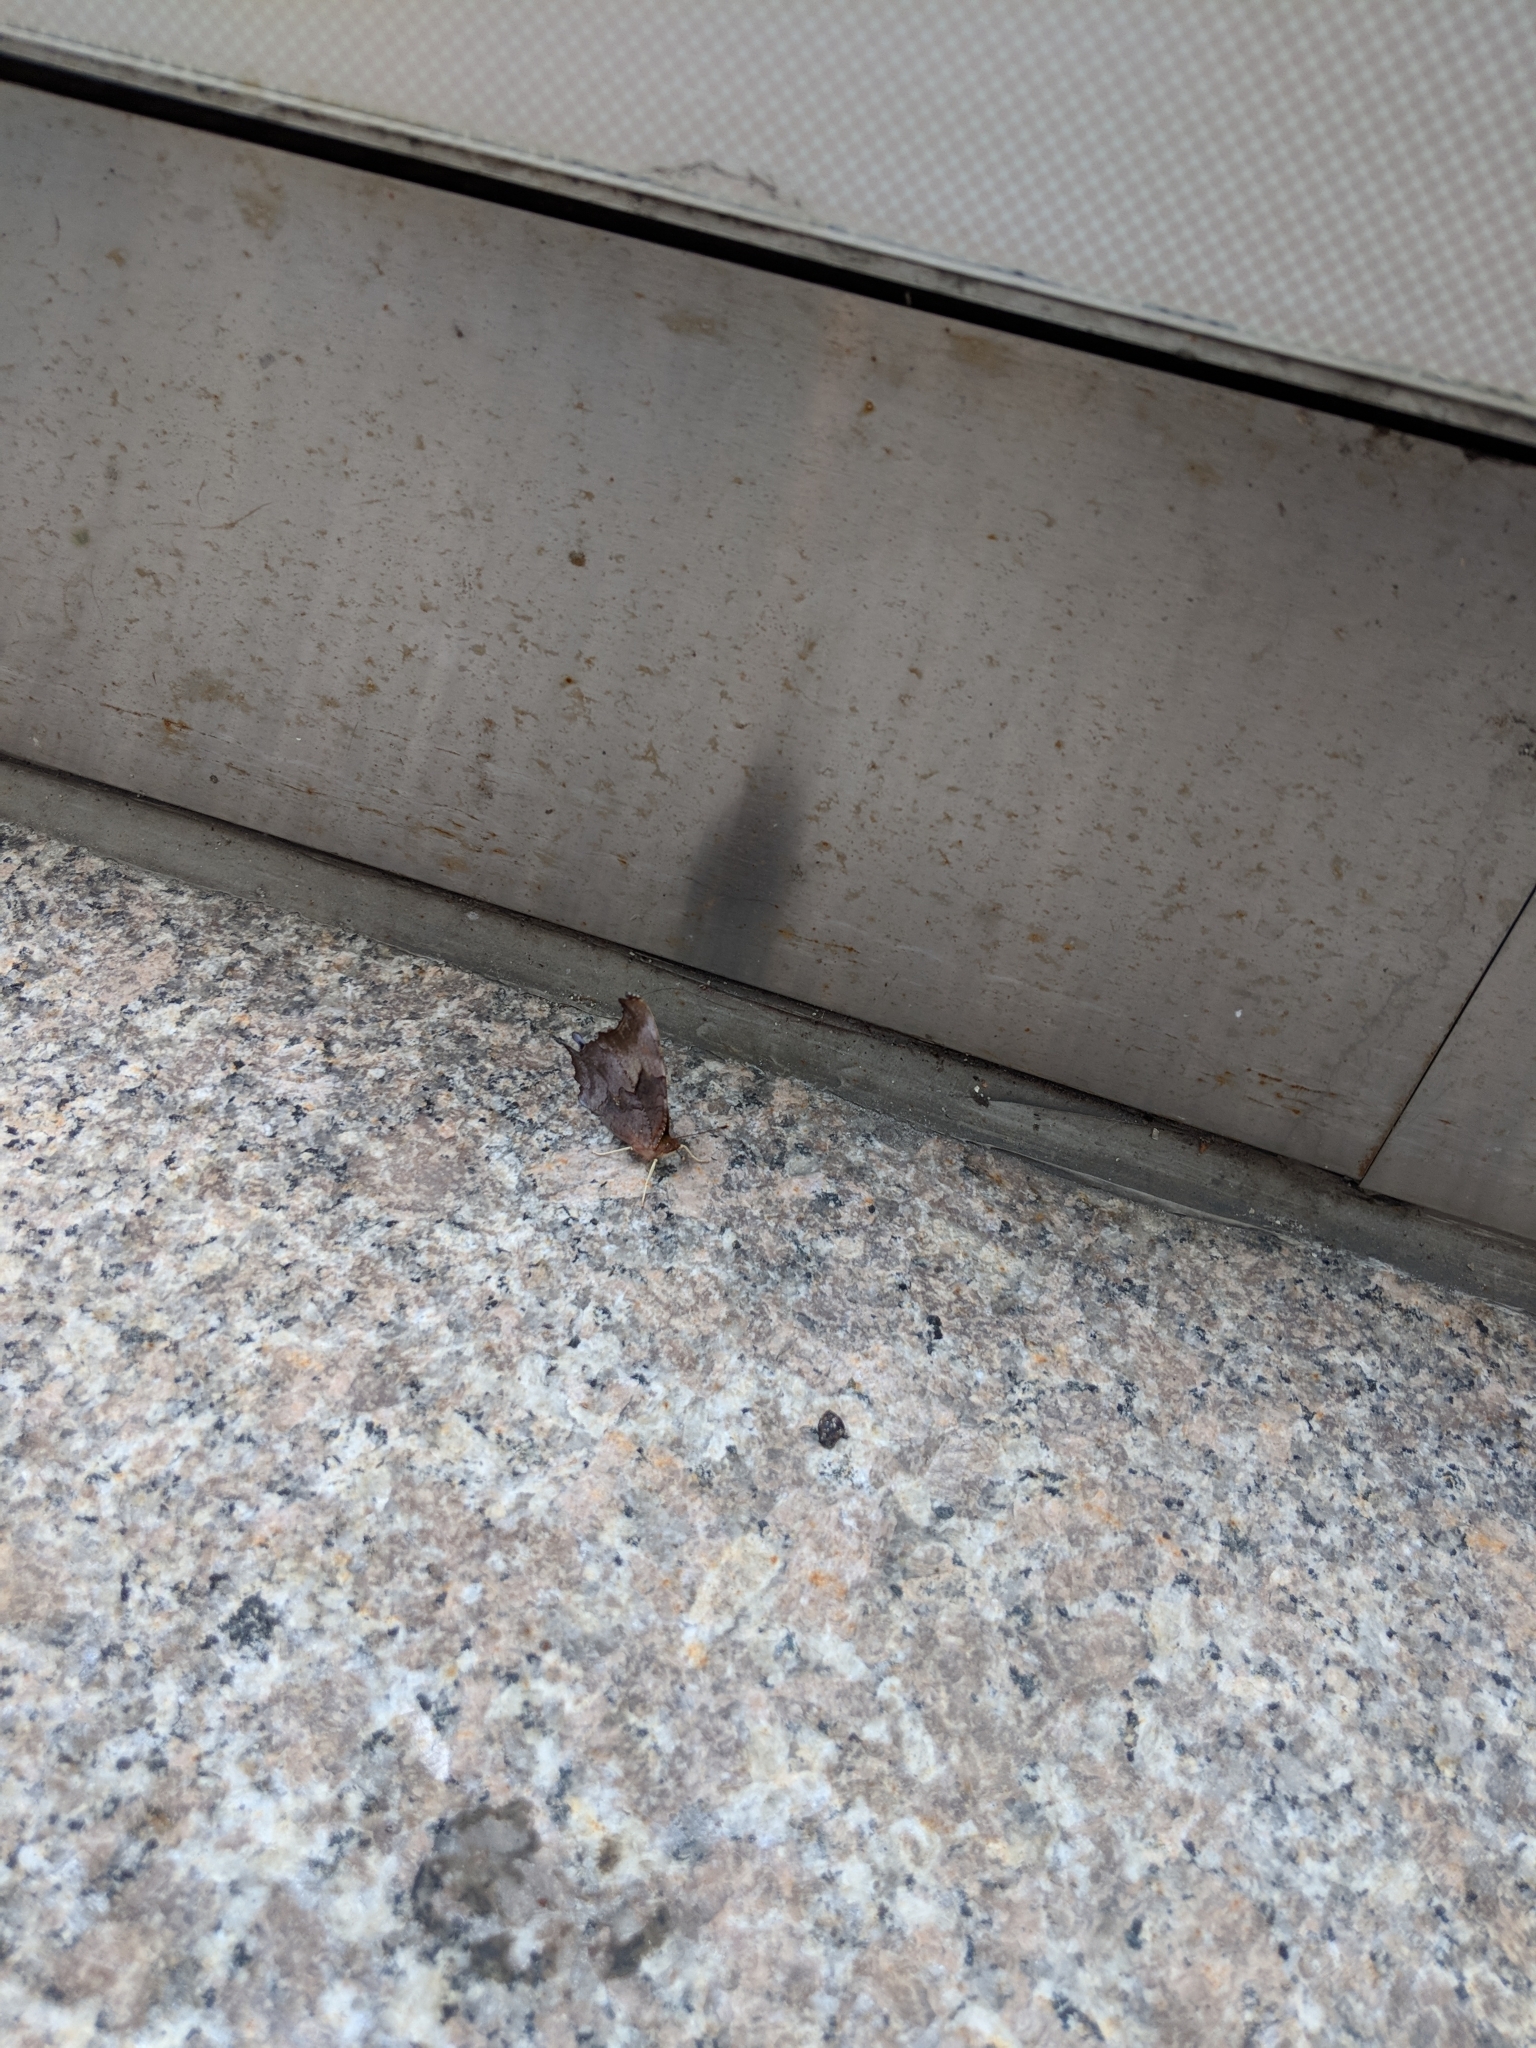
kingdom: Animalia
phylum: Arthropoda
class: Insecta
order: Lepidoptera
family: Nymphalidae
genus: Polygonia
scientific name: Polygonia interrogationis
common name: Question mark
